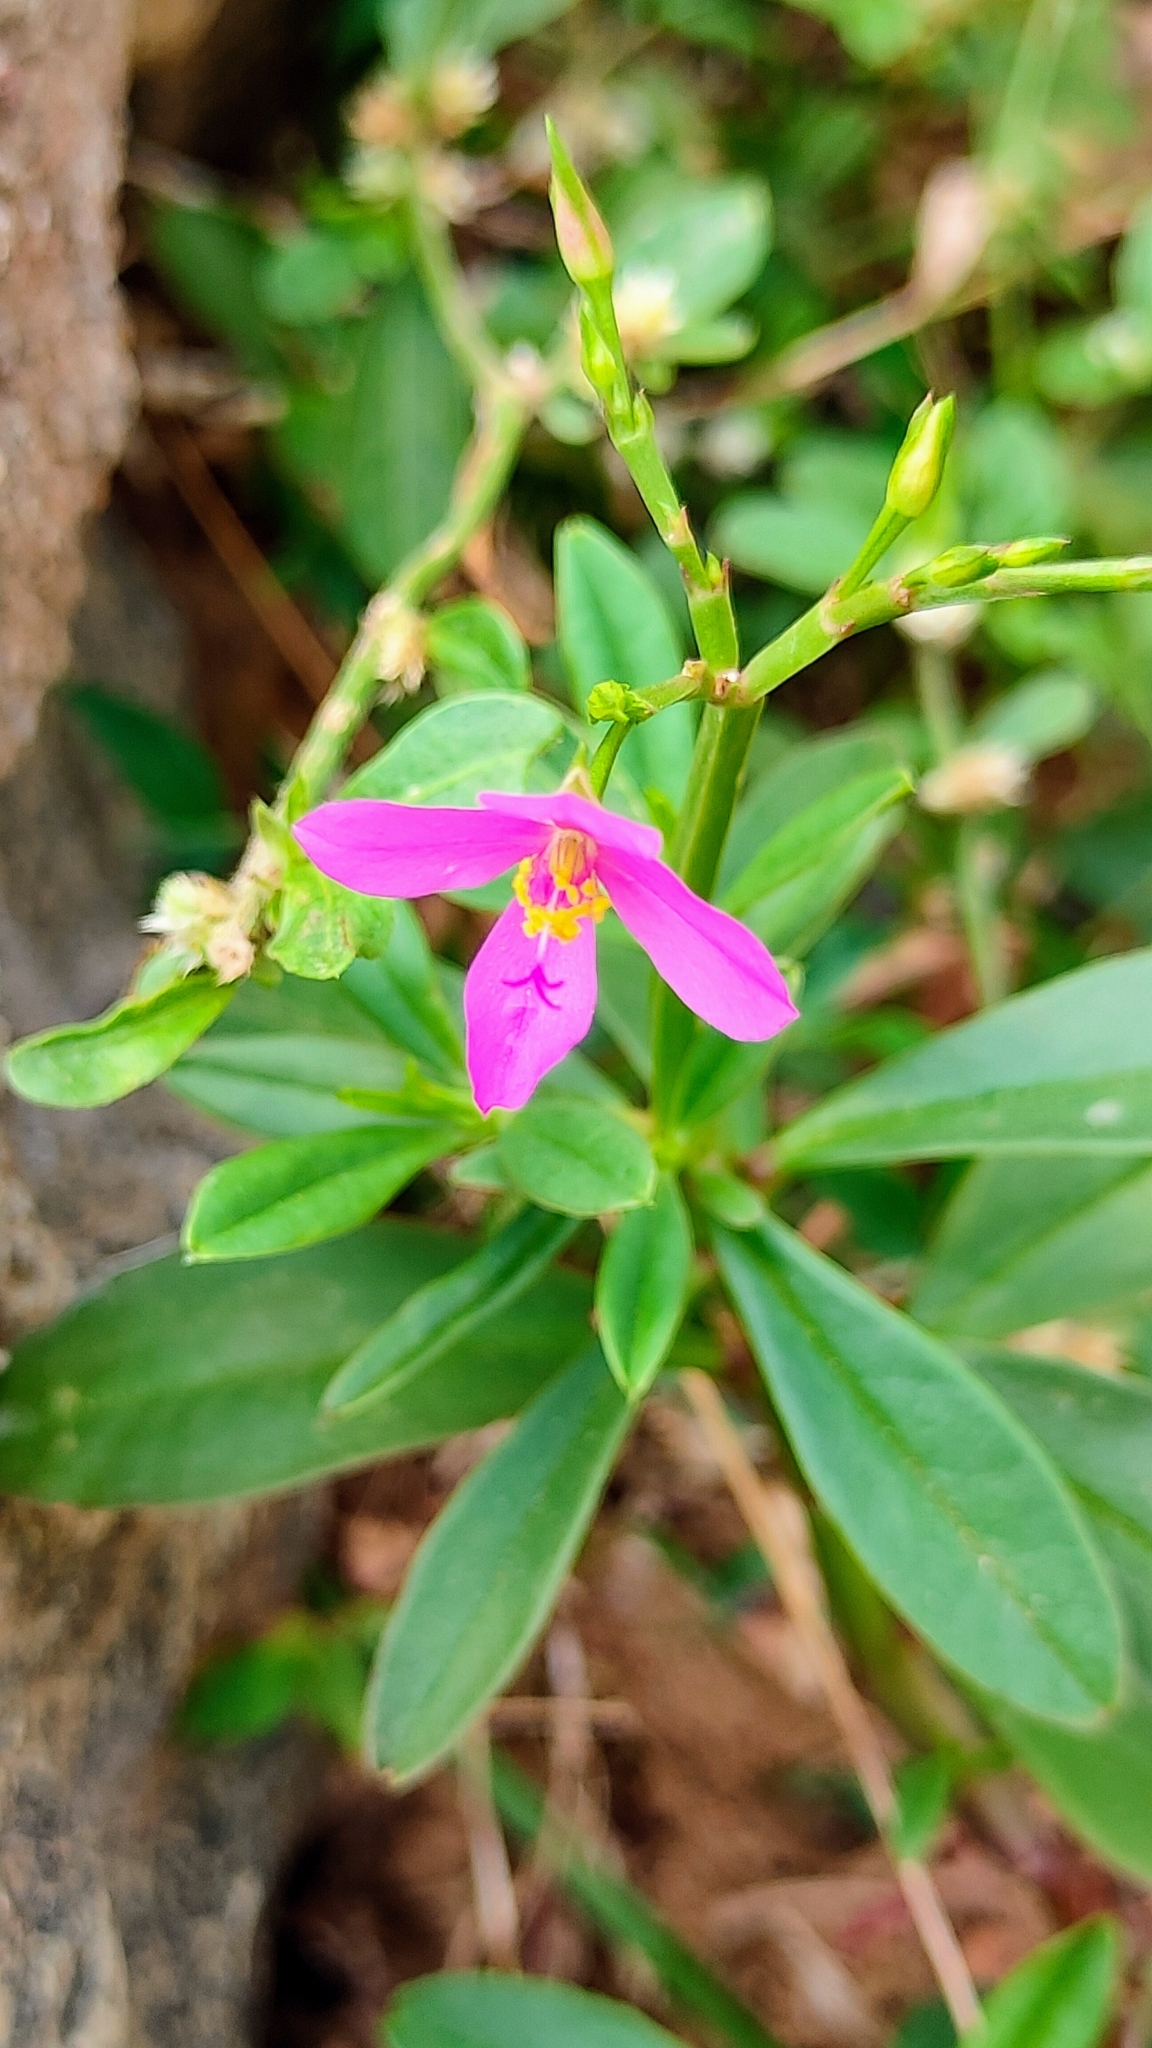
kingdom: Plantae
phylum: Tracheophyta
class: Magnoliopsida
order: Caryophyllales
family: Talinaceae
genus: Talinum
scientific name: Talinum fruticosum
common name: Verdolaga-francesa
